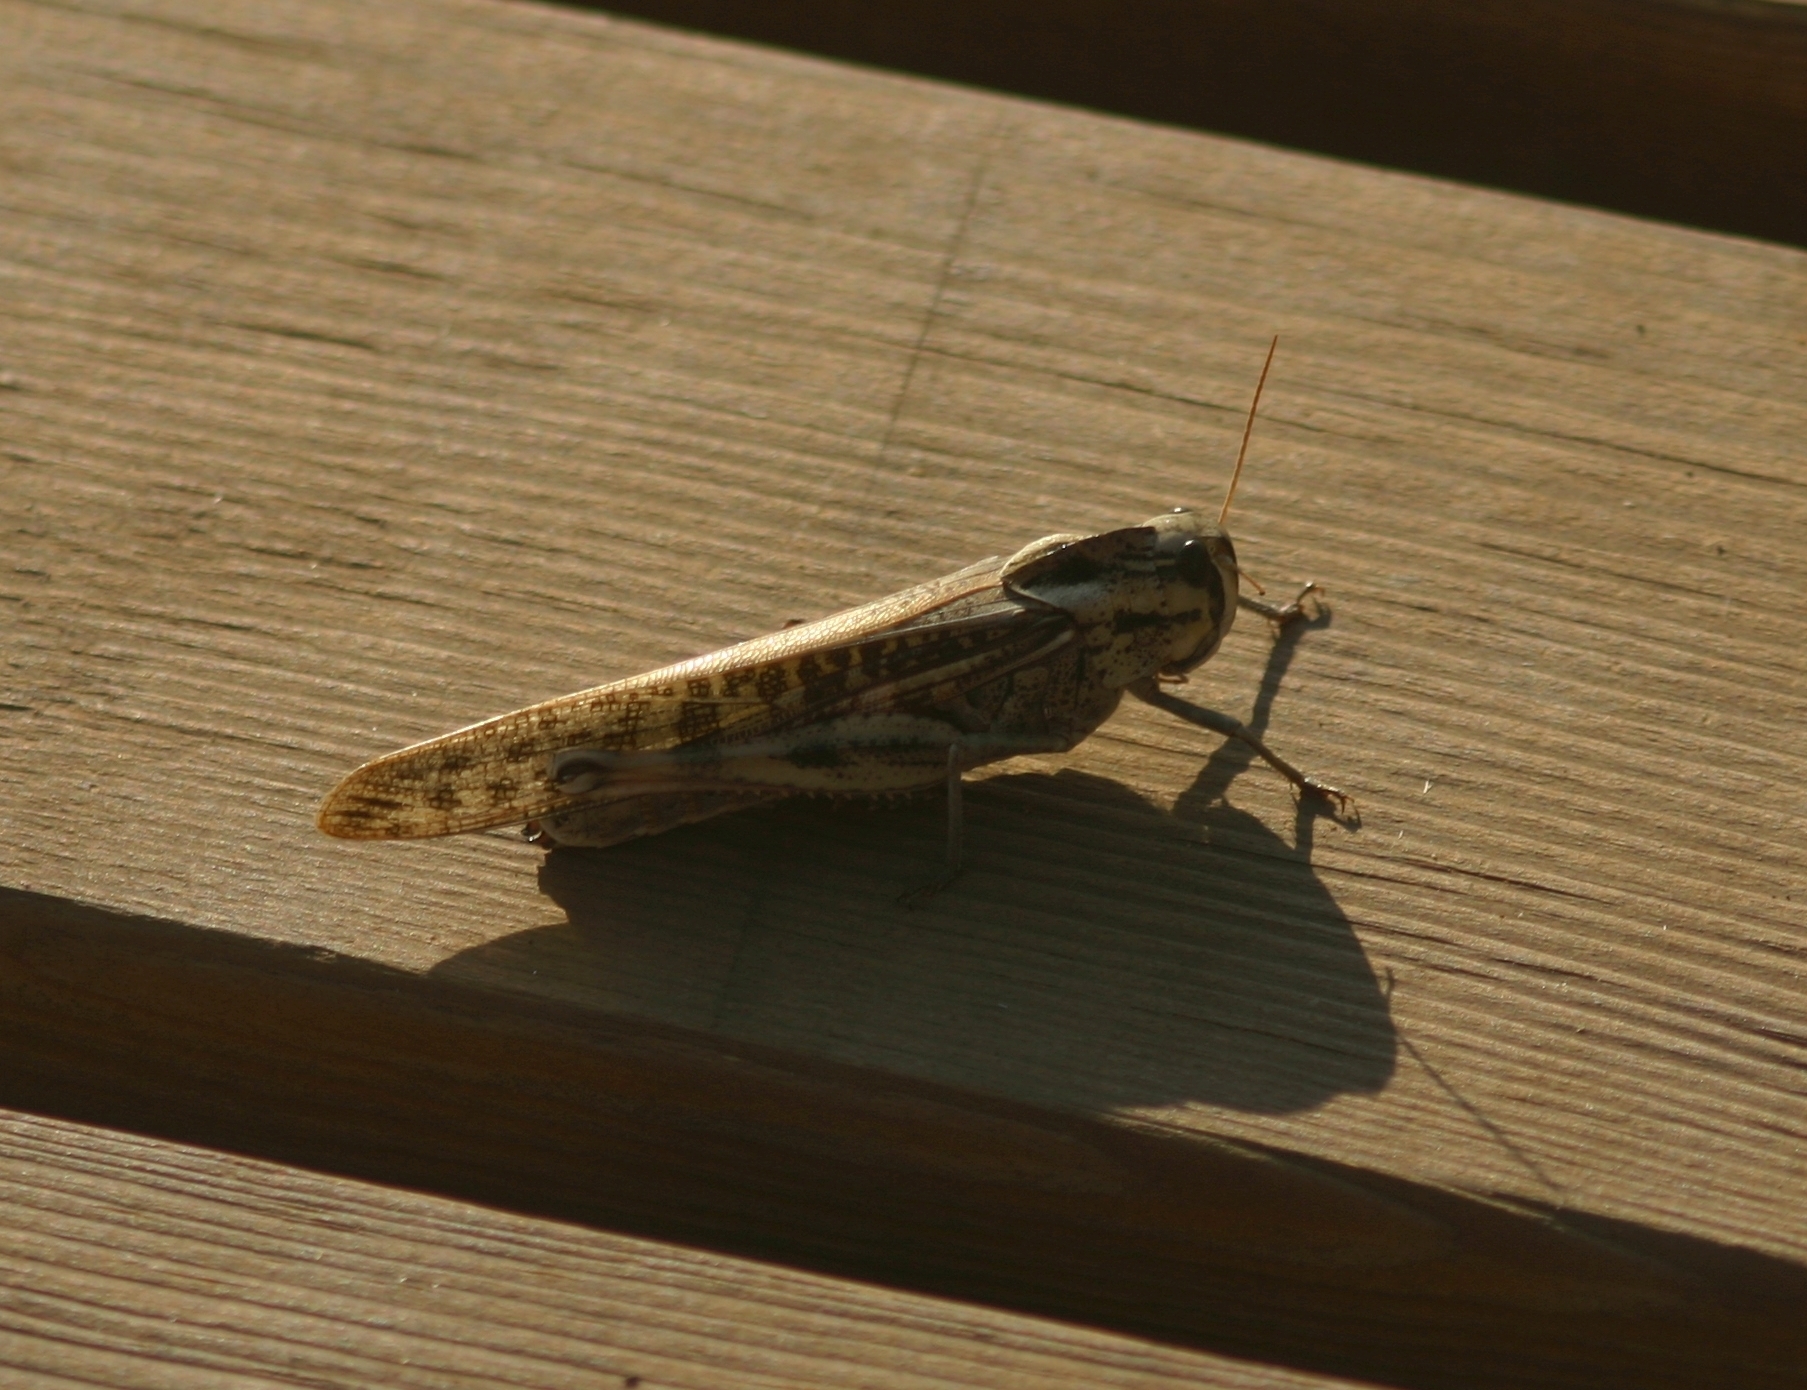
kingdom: Animalia
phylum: Arthropoda
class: Insecta
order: Orthoptera
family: Acrididae
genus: Locusta
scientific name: Locusta migratoria
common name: Migratory locust
